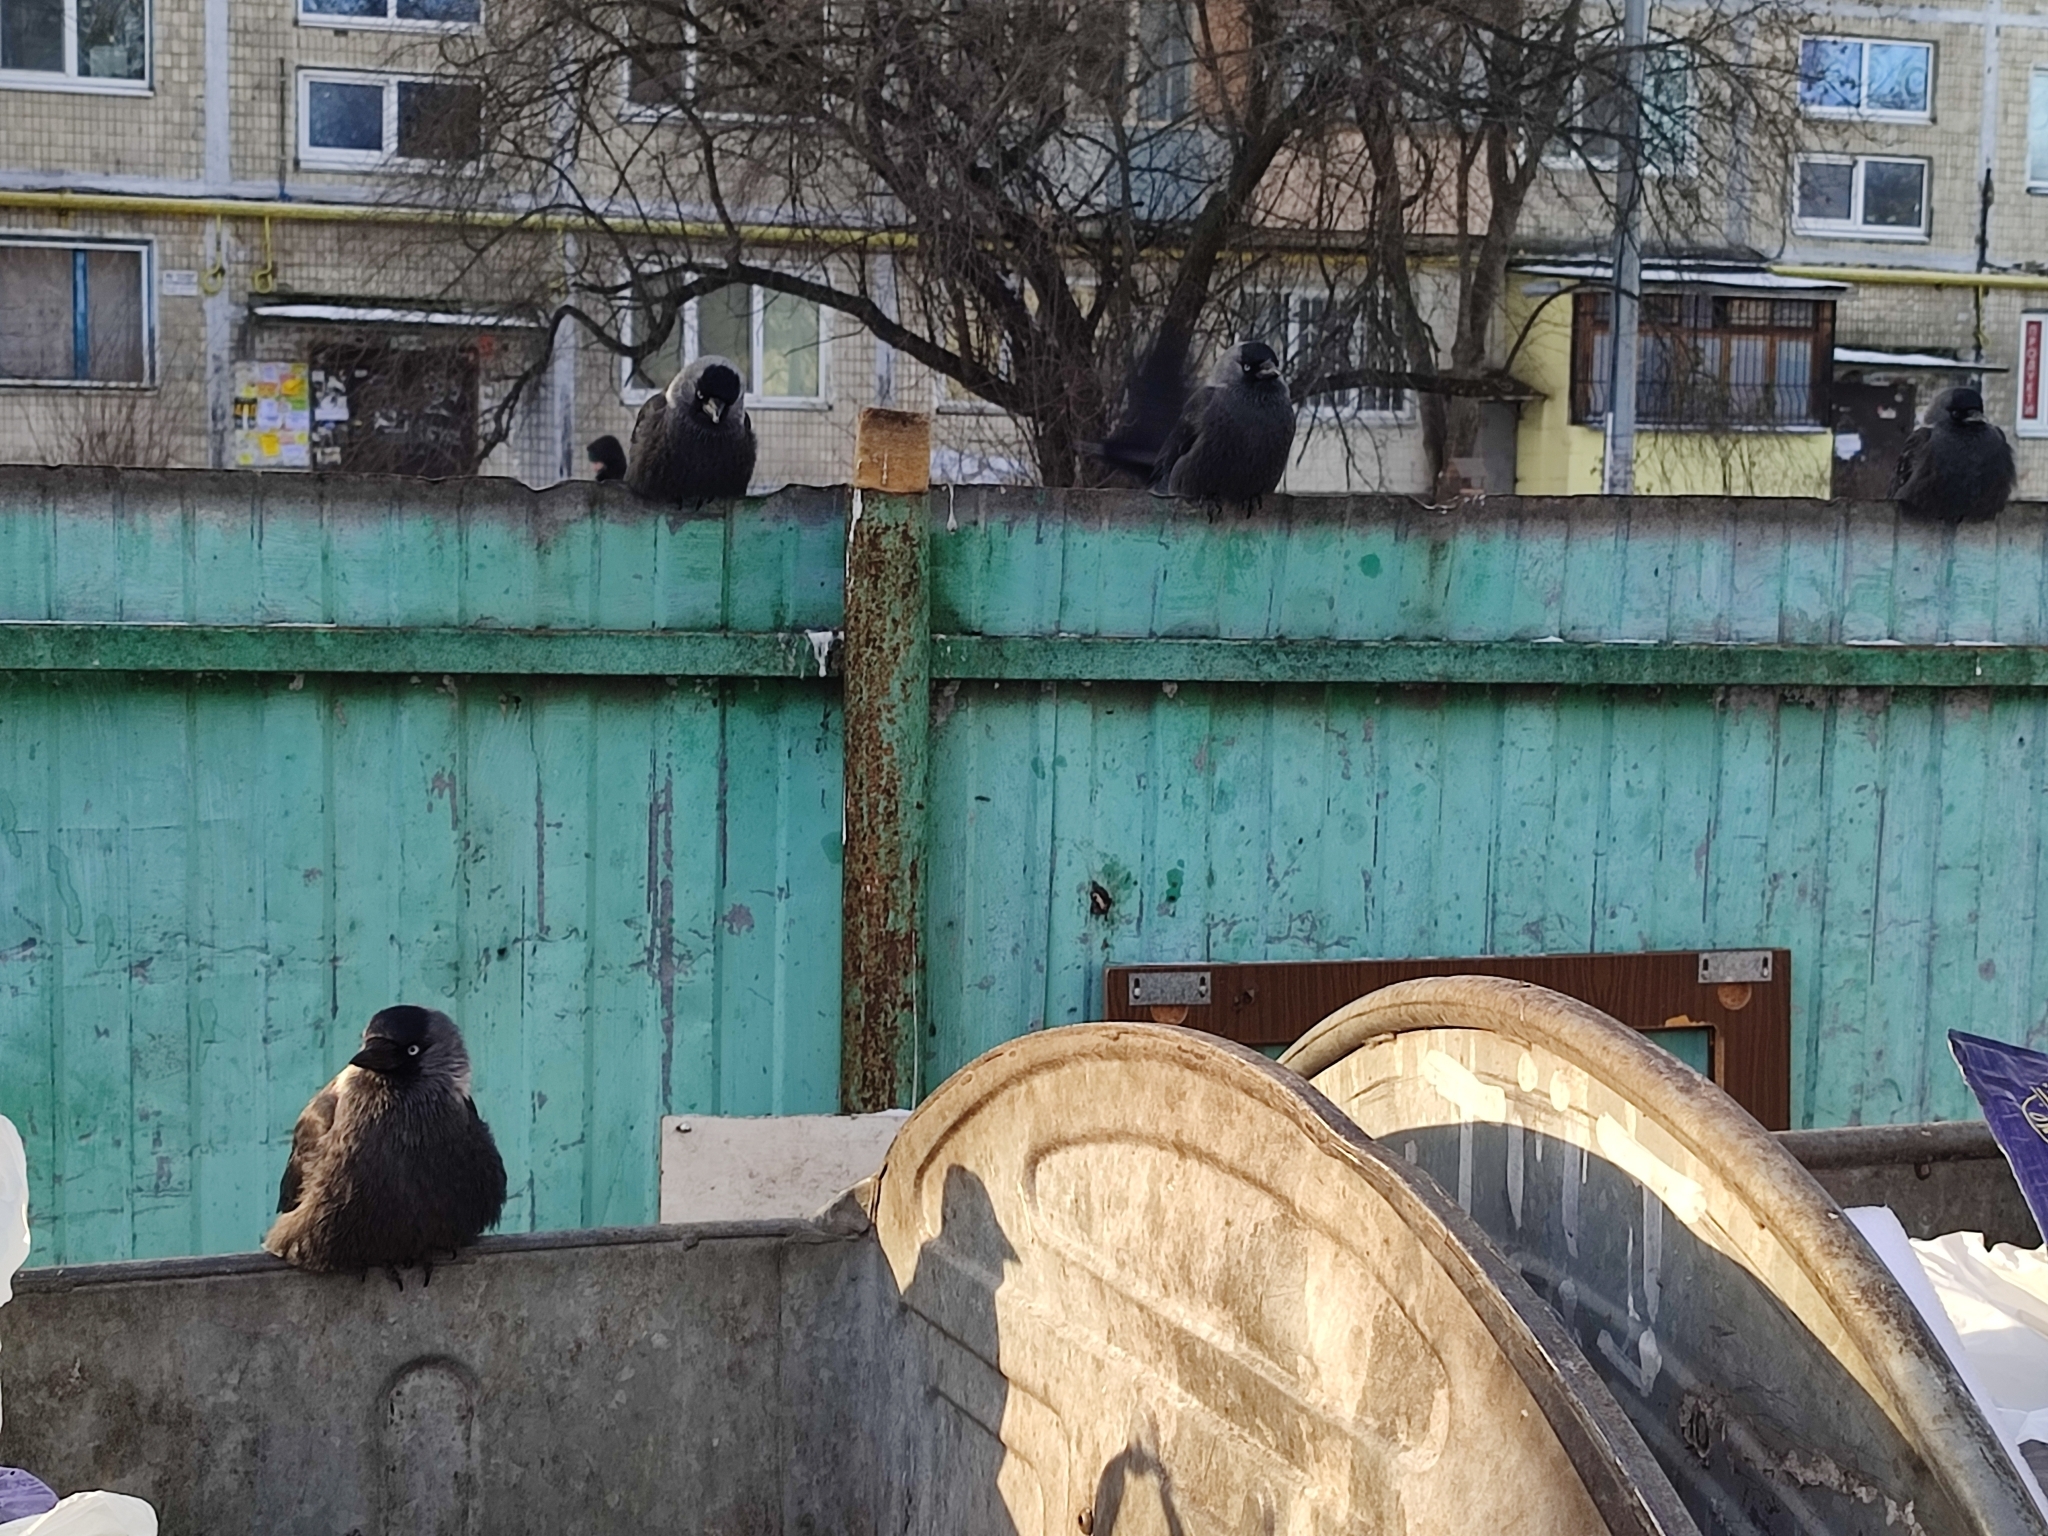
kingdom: Animalia
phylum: Chordata
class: Aves
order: Passeriformes
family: Corvidae
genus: Coloeus
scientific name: Coloeus monedula
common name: Western jackdaw
